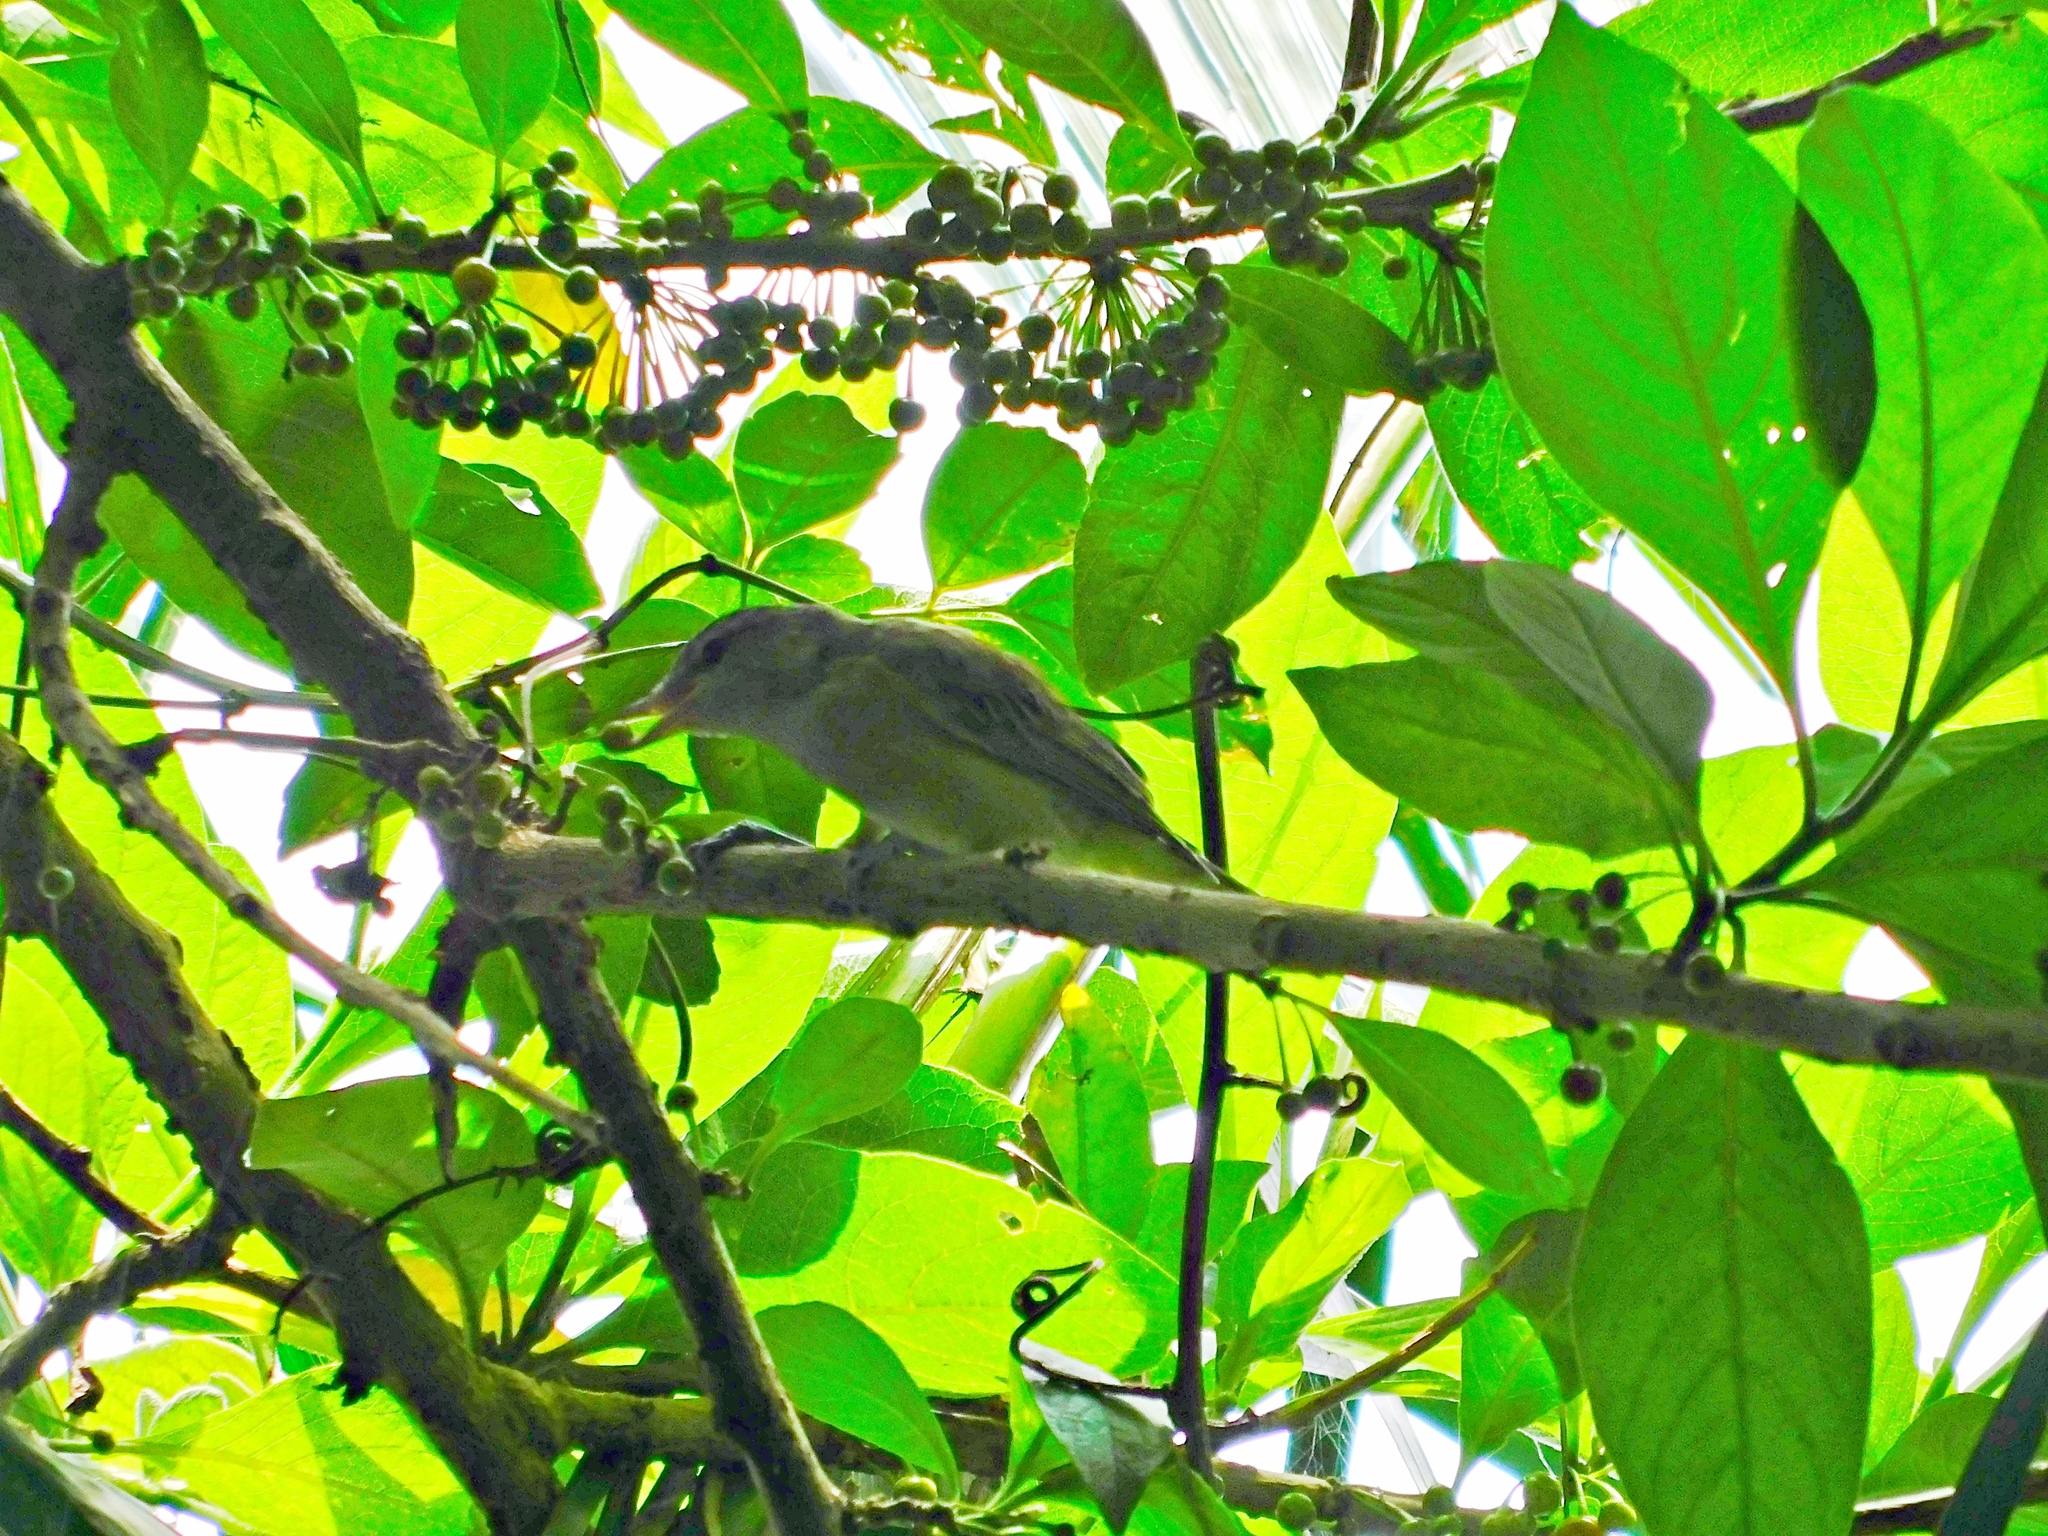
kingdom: Animalia
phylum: Chordata
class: Aves
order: Passeriformes
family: Vireonidae
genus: Vireo
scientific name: Vireo flavoviridis
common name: Yellow-green vireo
